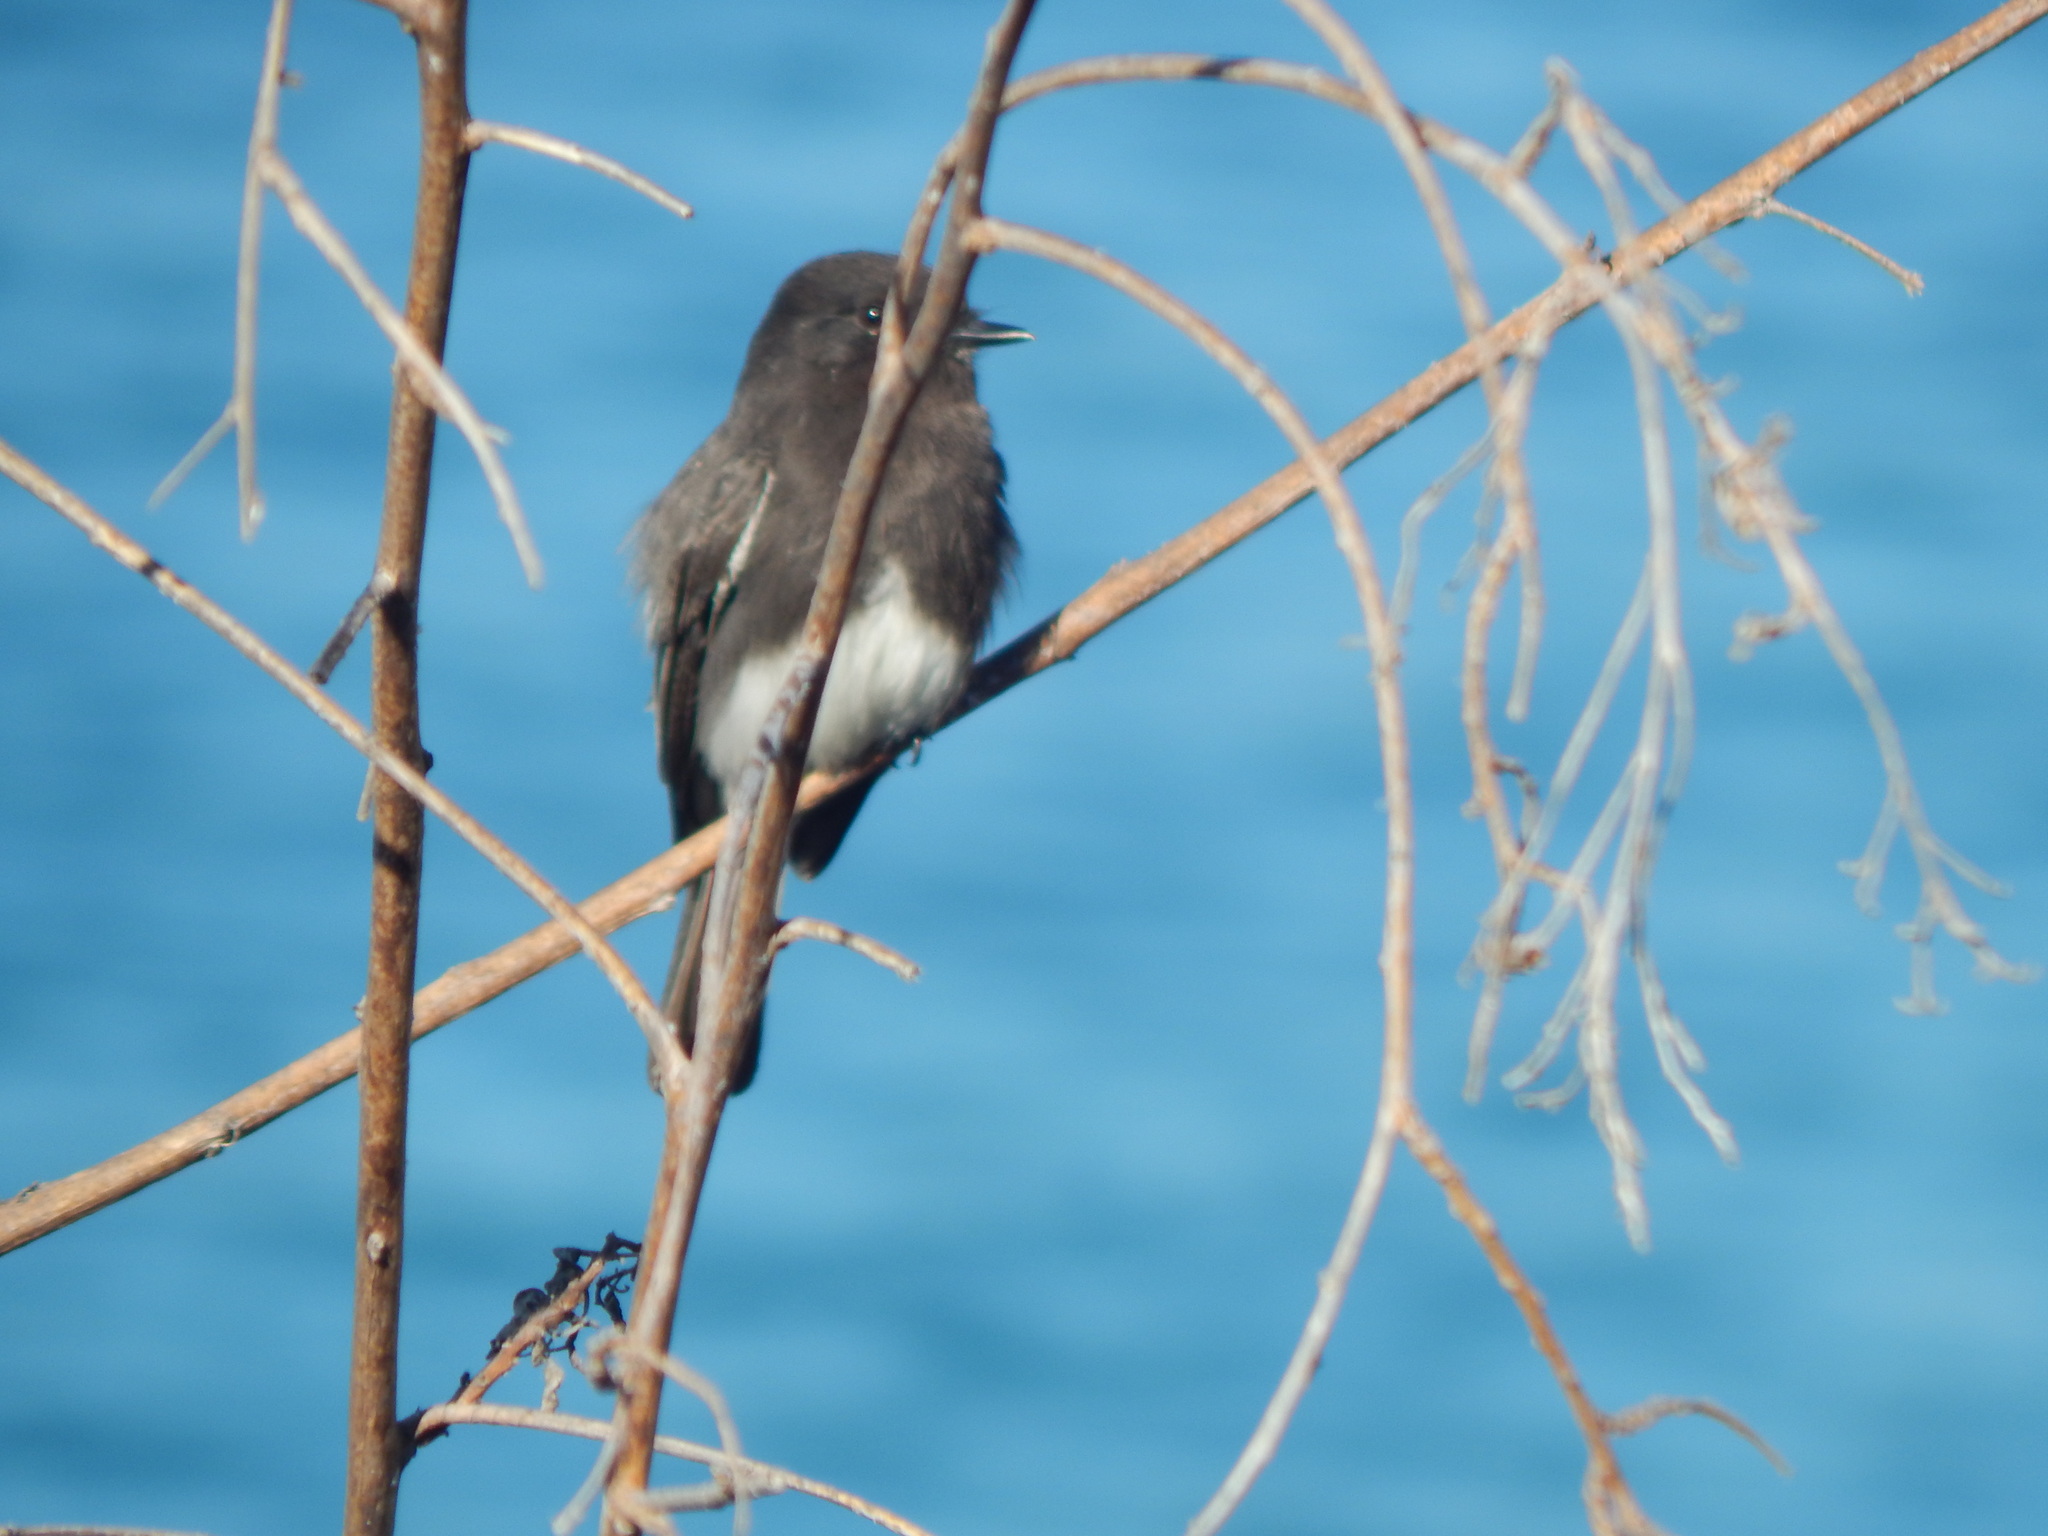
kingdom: Animalia
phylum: Chordata
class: Aves
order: Passeriformes
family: Tyrannidae
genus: Sayornis
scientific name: Sayornis nigricans
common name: Black phoebe
